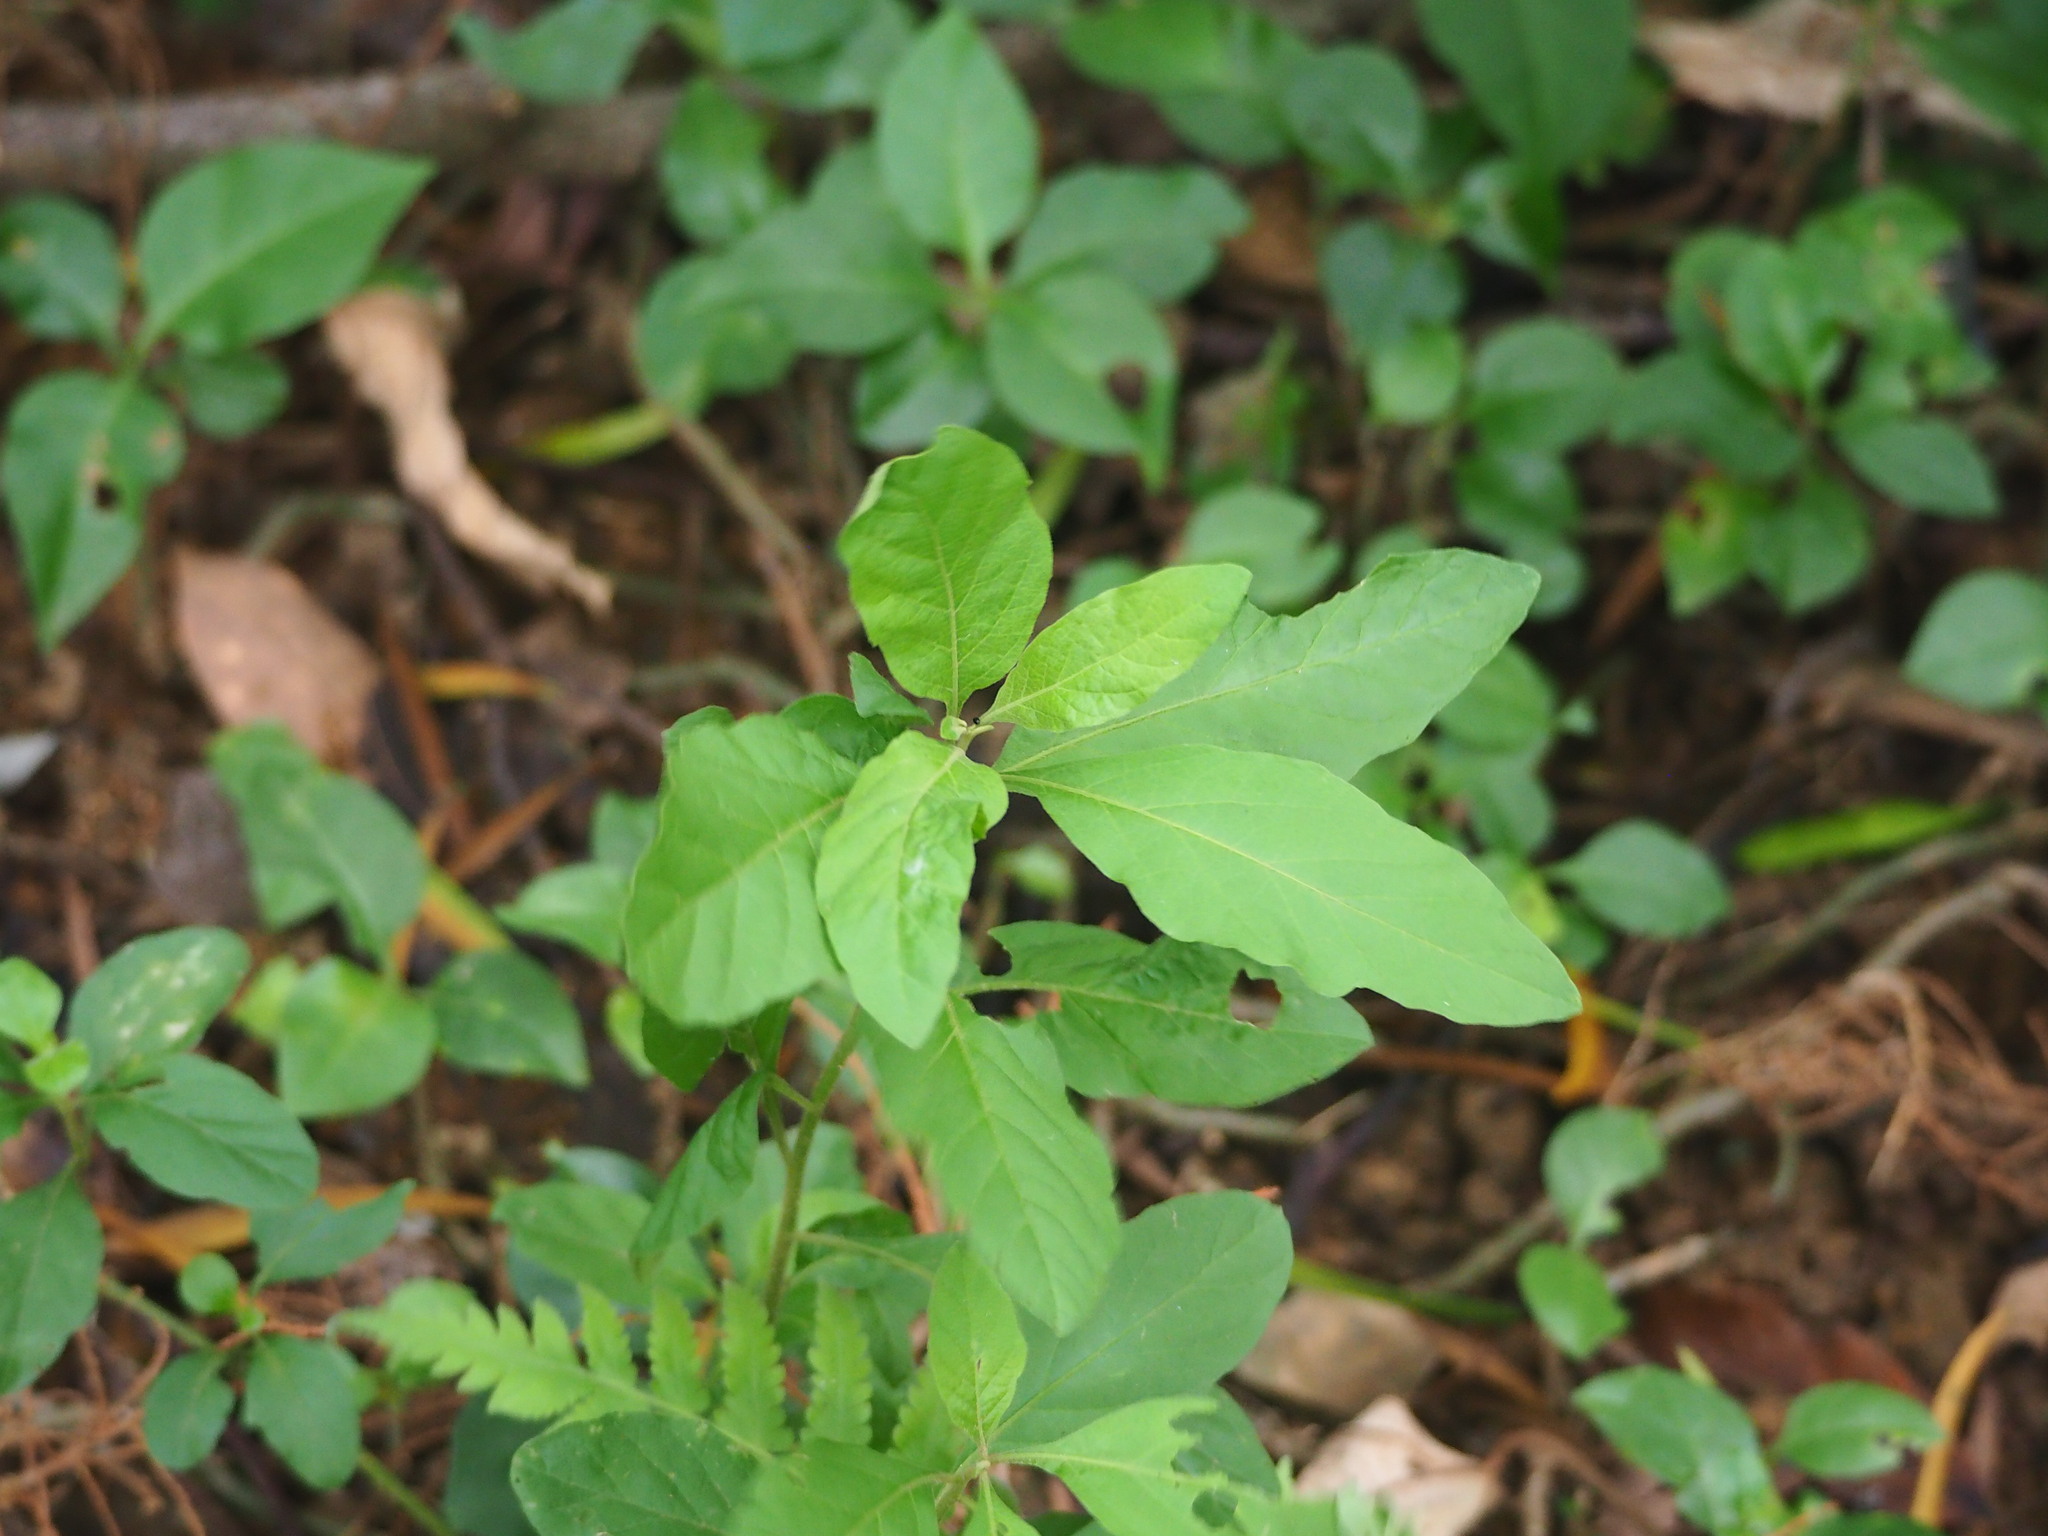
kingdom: Plantae
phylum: Tracheophyta
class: Magnoliopsida
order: Solanales
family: Solanaceae
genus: Solanum
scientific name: Solanum pseudocapsicum
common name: Jerusalem cherry
